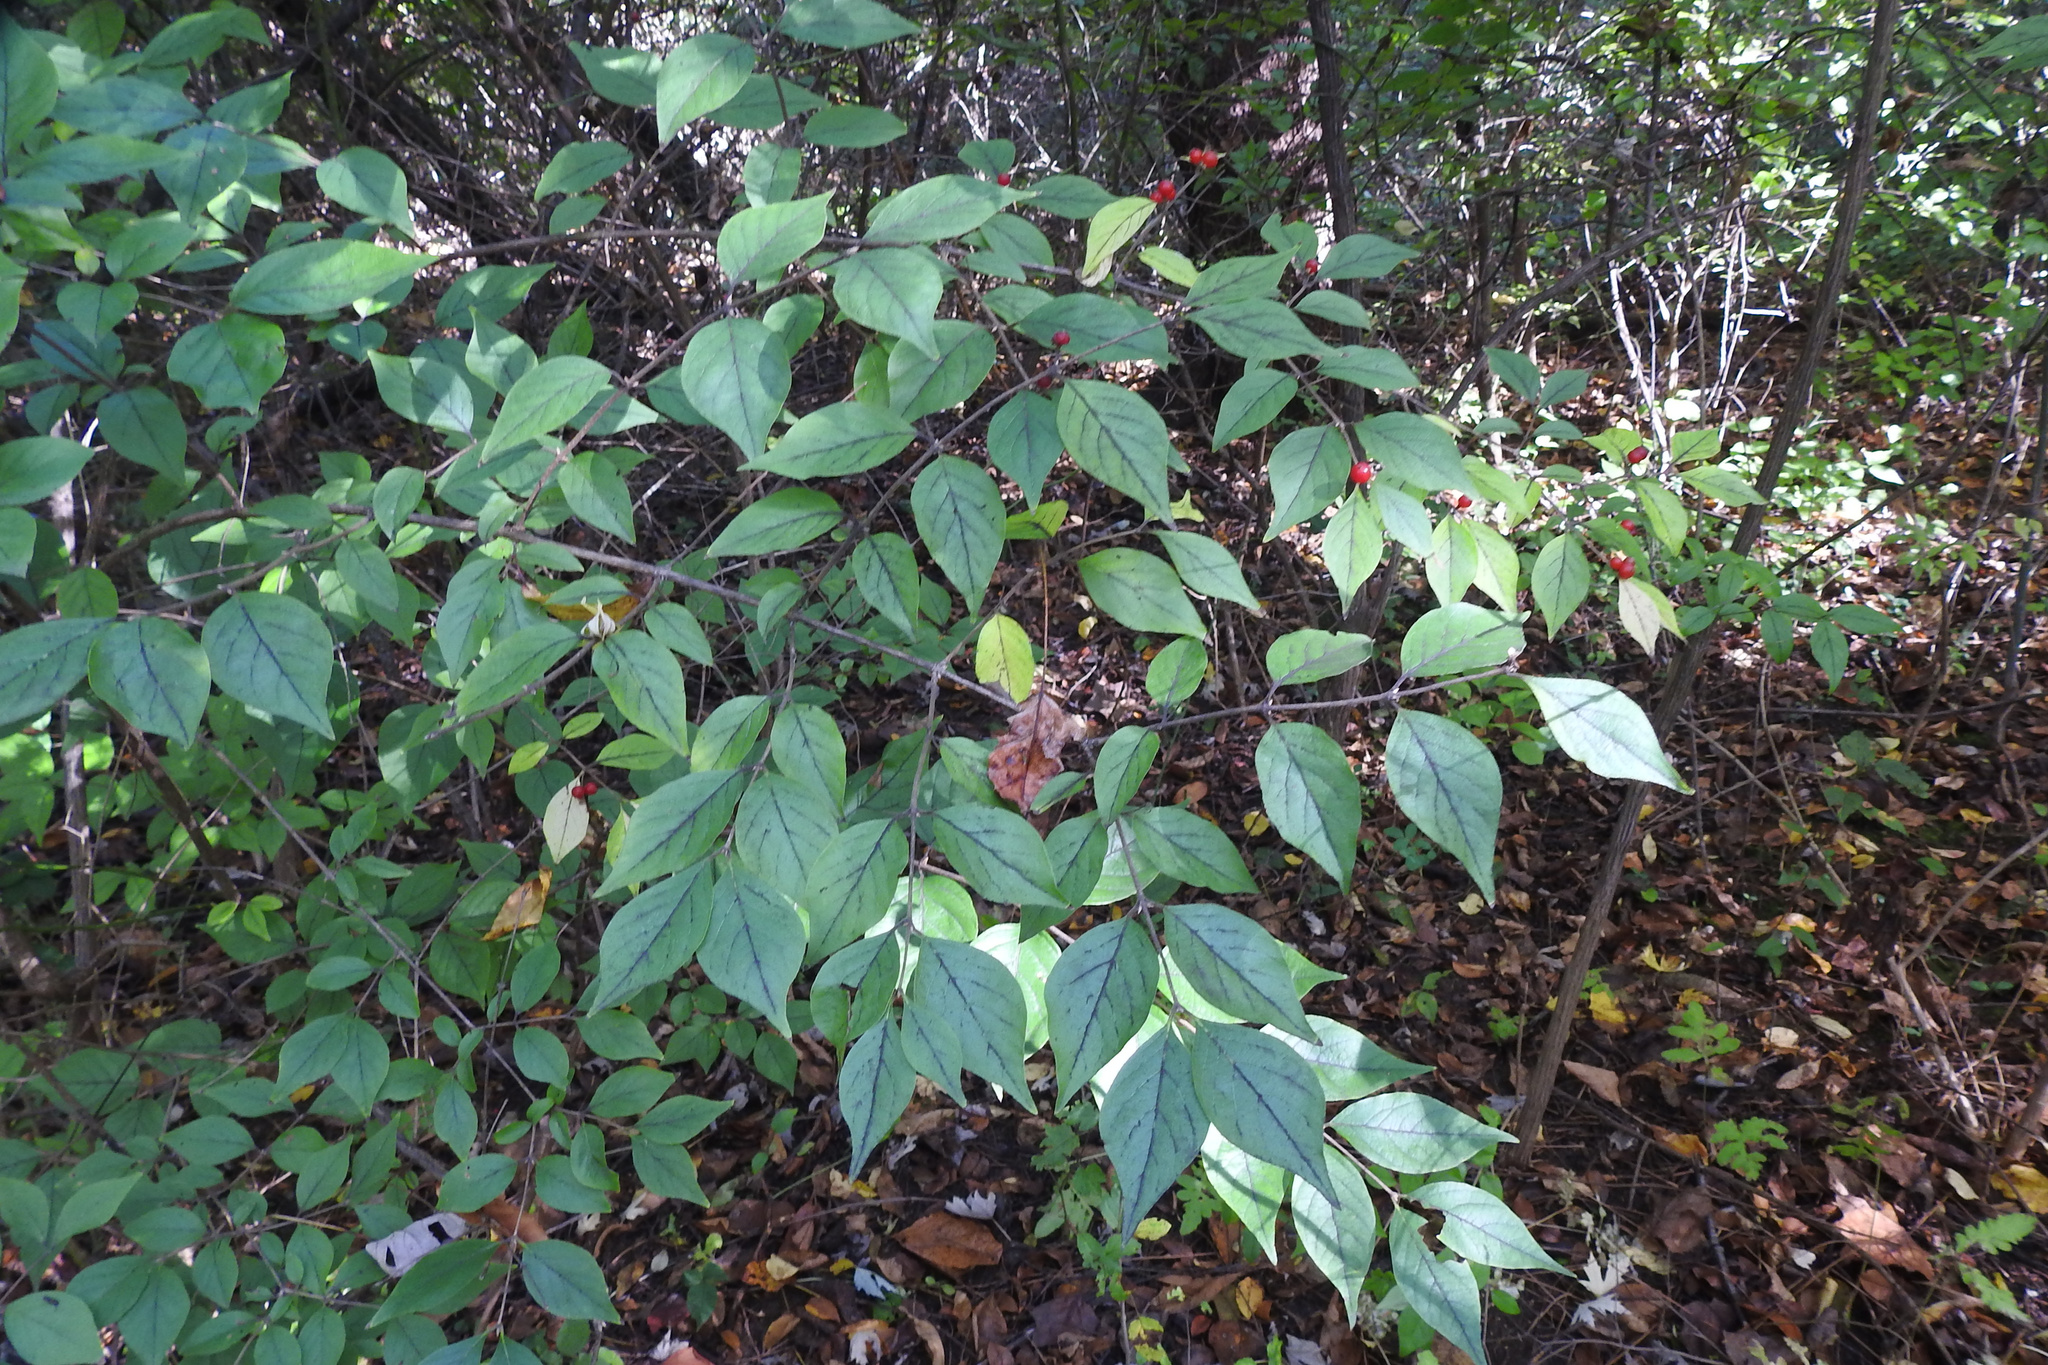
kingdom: Plantae
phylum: Tracheophyta
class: Magnoliopsida
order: Dipsacales
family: Caprifoliaceae
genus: Lonicera
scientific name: Lonicera maackii
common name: Amur honeysuckle
